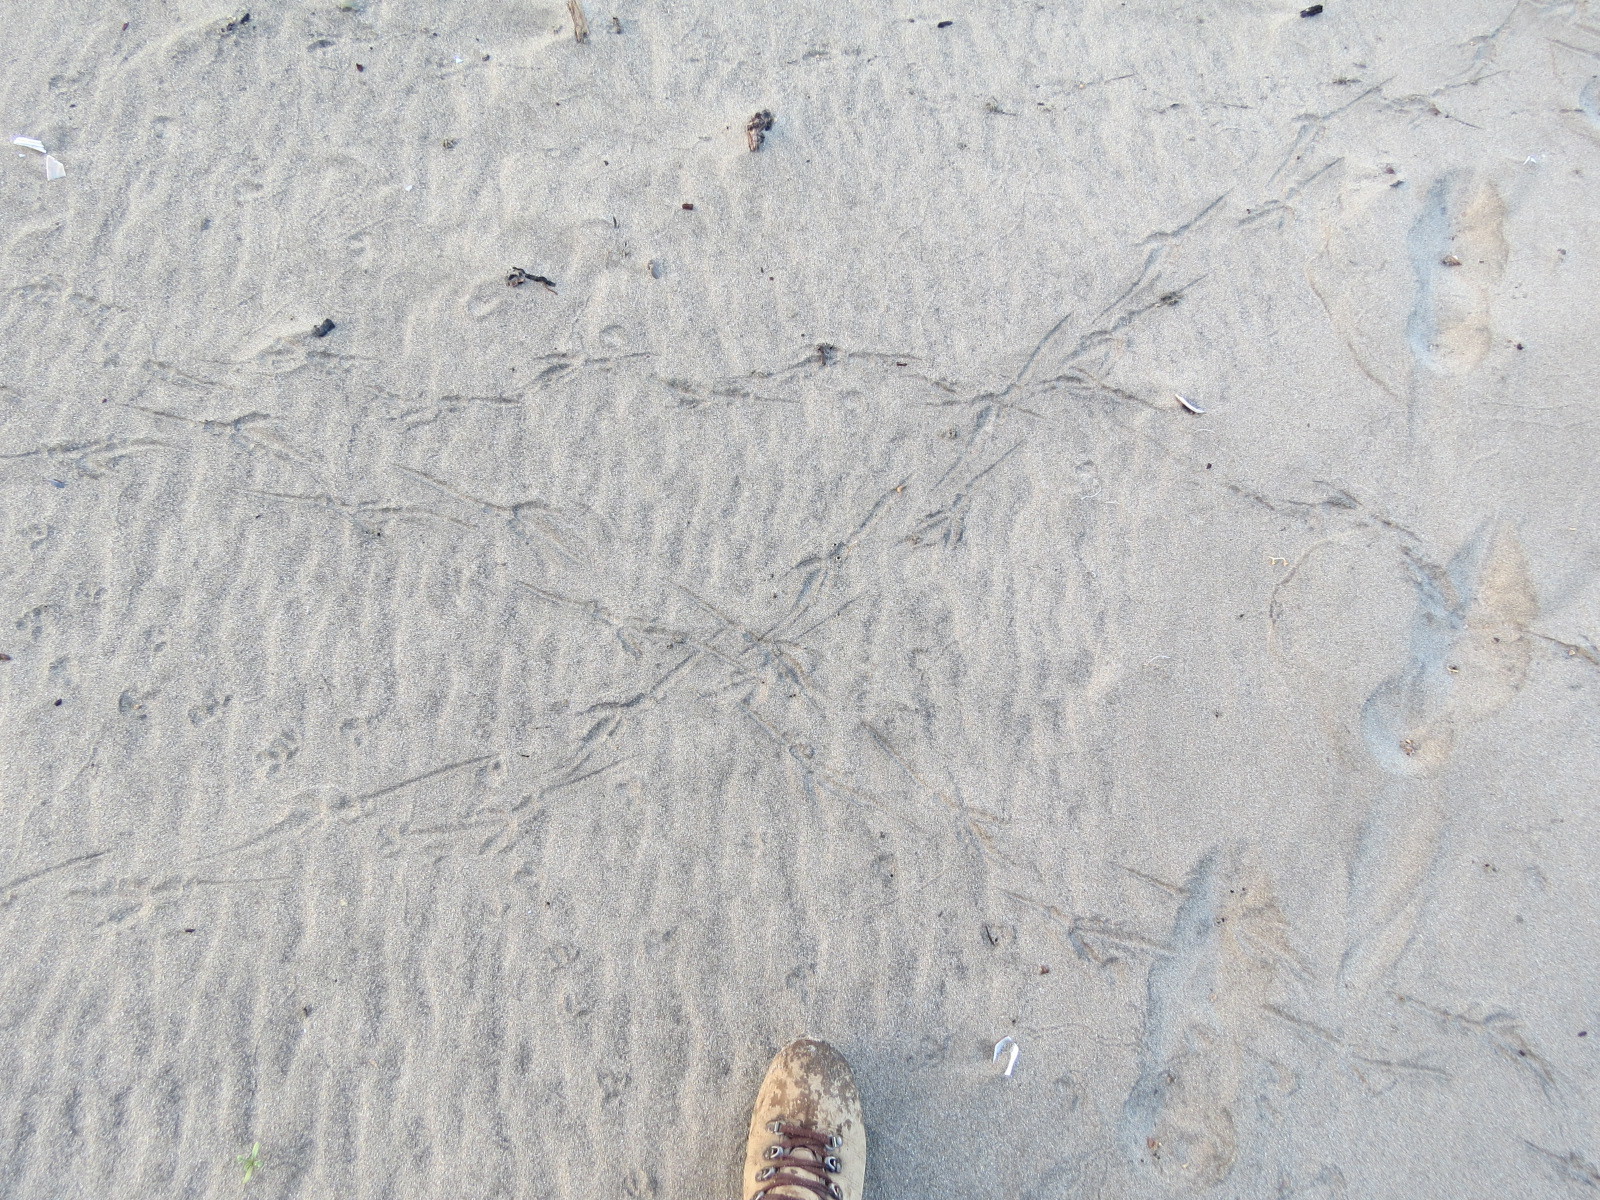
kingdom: Animalia
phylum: Chordata
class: Aves
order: Passeriformes
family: Corvidae
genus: Corvus
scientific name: Corvus corax
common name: Common raven
